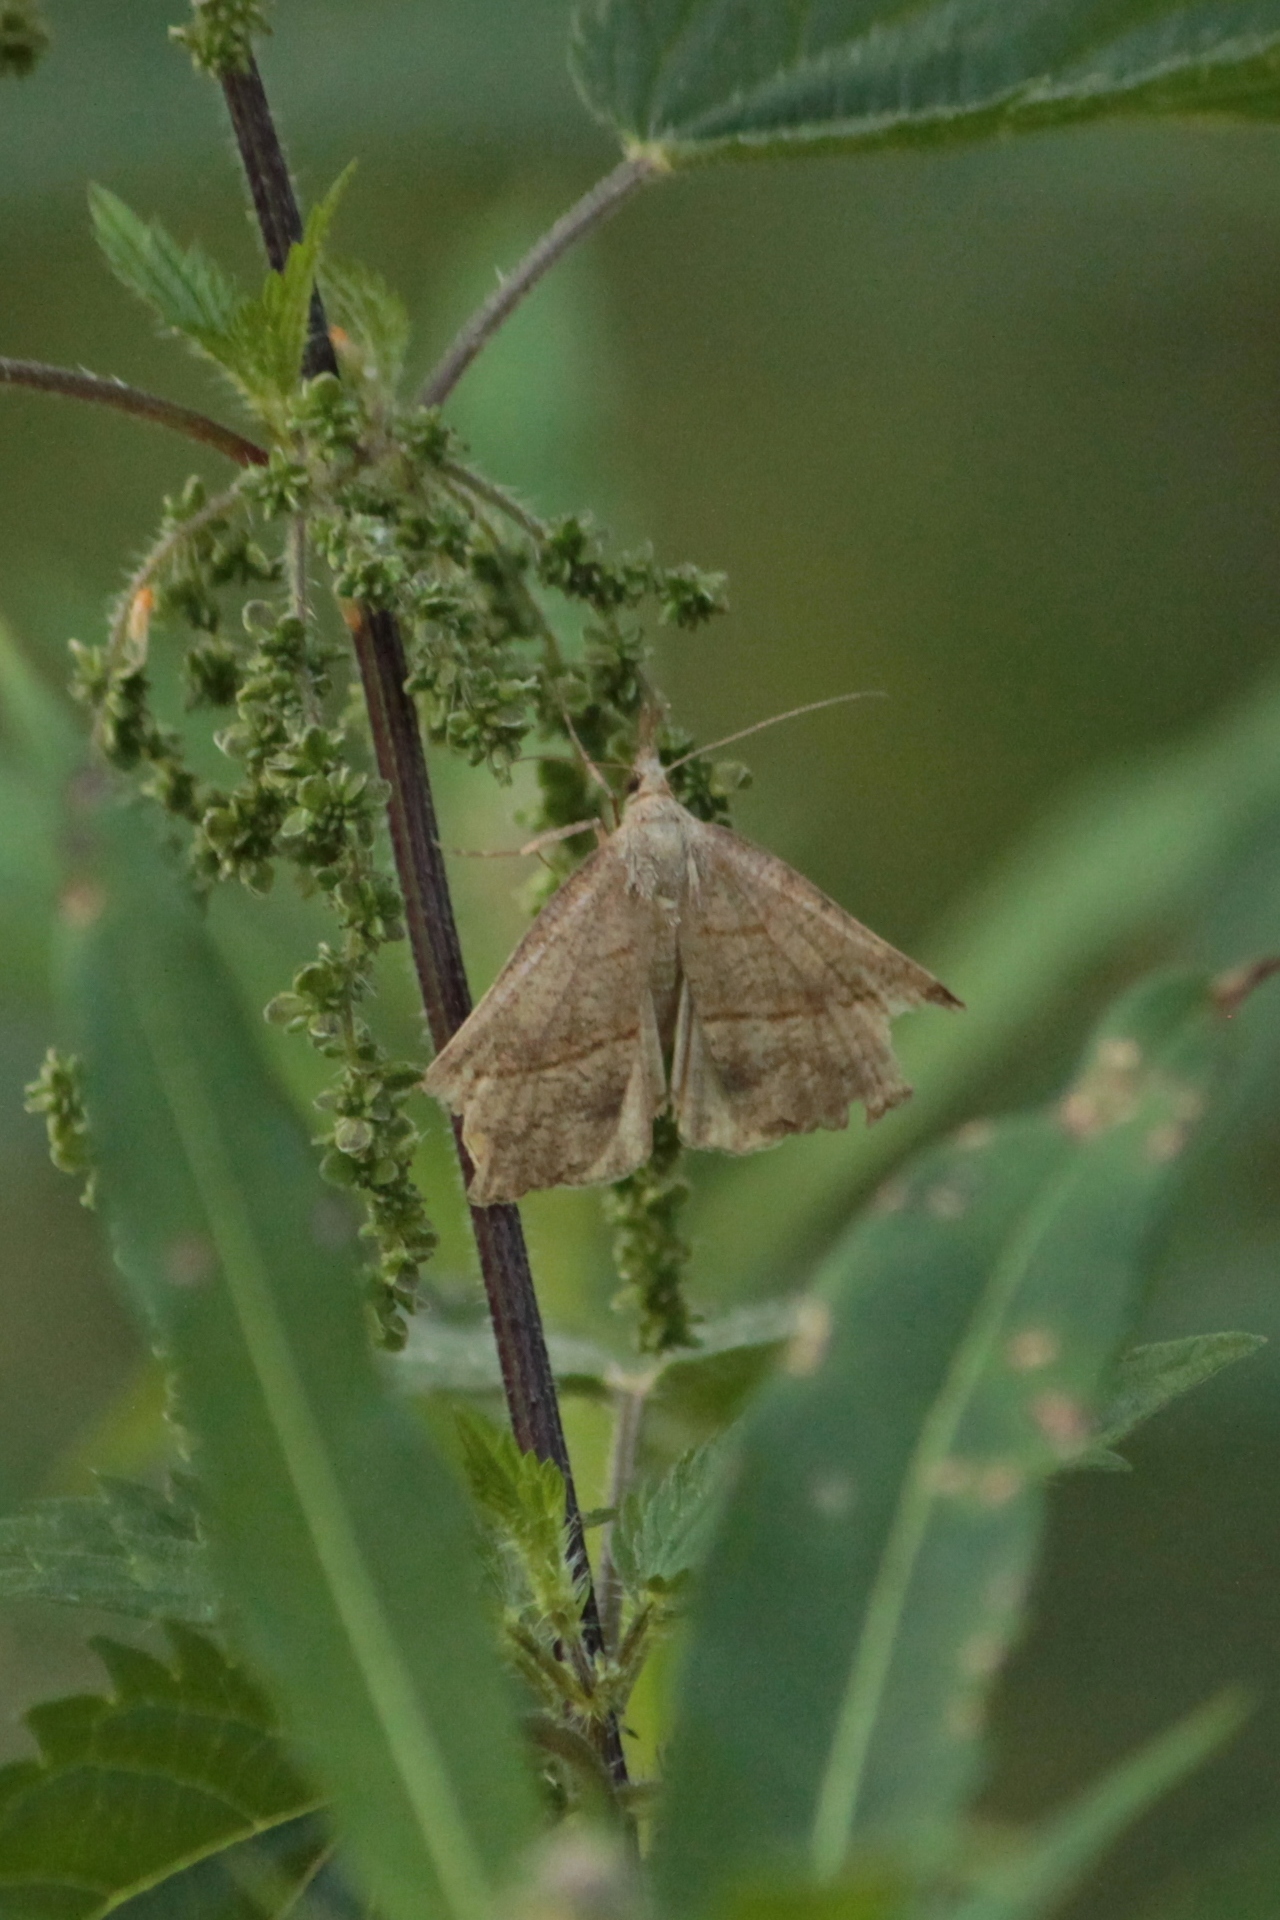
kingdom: Animalia
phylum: Arthropoda
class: Insecta
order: Lepidoptera
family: Erebidae
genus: Hypena
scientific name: Hypena proboscidalis
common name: Snout
